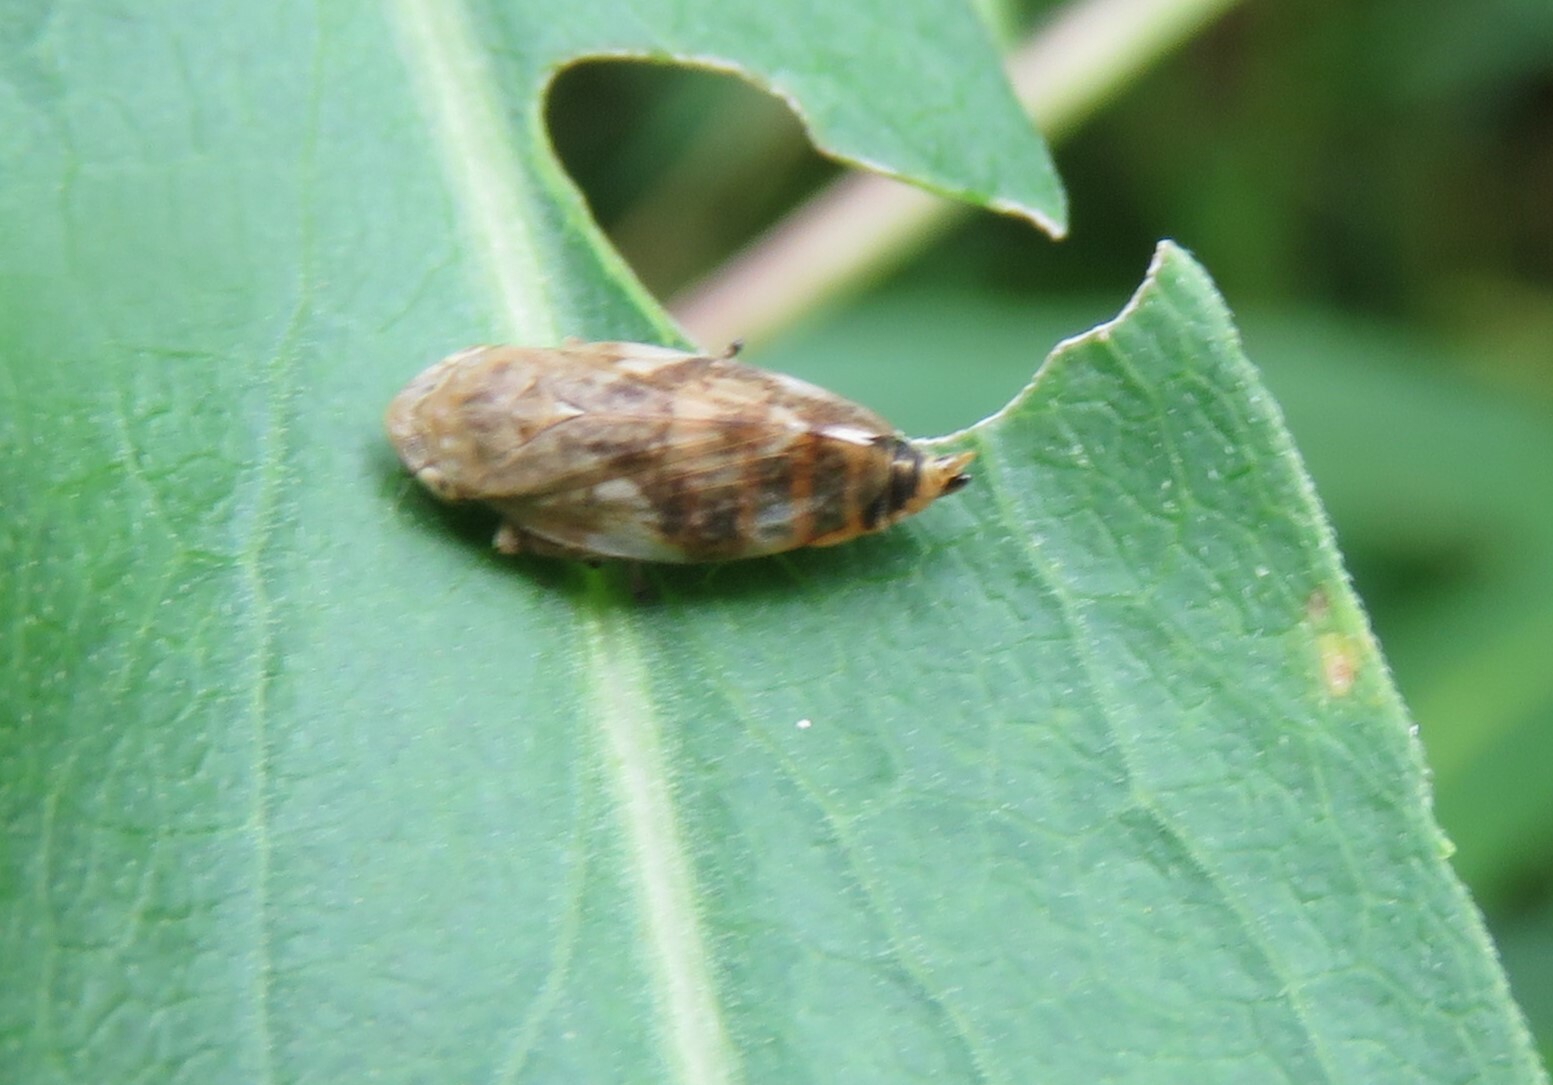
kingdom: Animalia
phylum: Arthropoda
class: Insecta
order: Hemiptera
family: Aphrophoridae
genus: Philaenus
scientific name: Philaenus spumarius
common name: Meadow spittlebug
